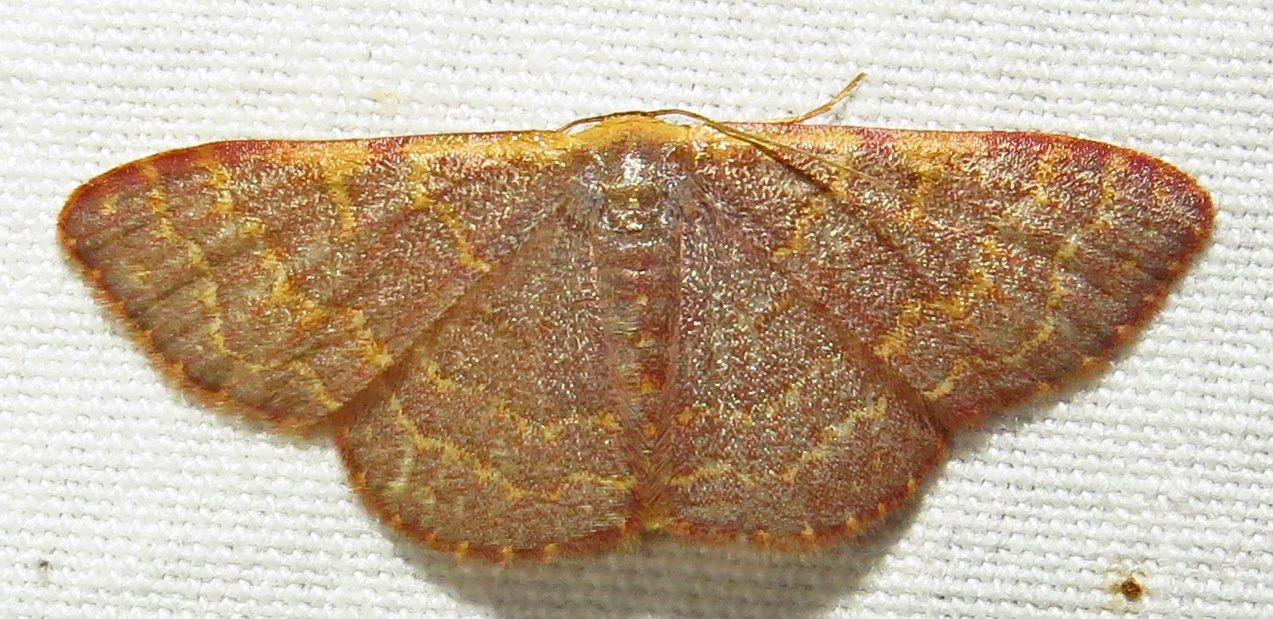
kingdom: Animalia
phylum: Arthropoda
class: Insecta
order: Lepidoptera
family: Geometridae
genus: Leptostales
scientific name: Leptostales pannaria
